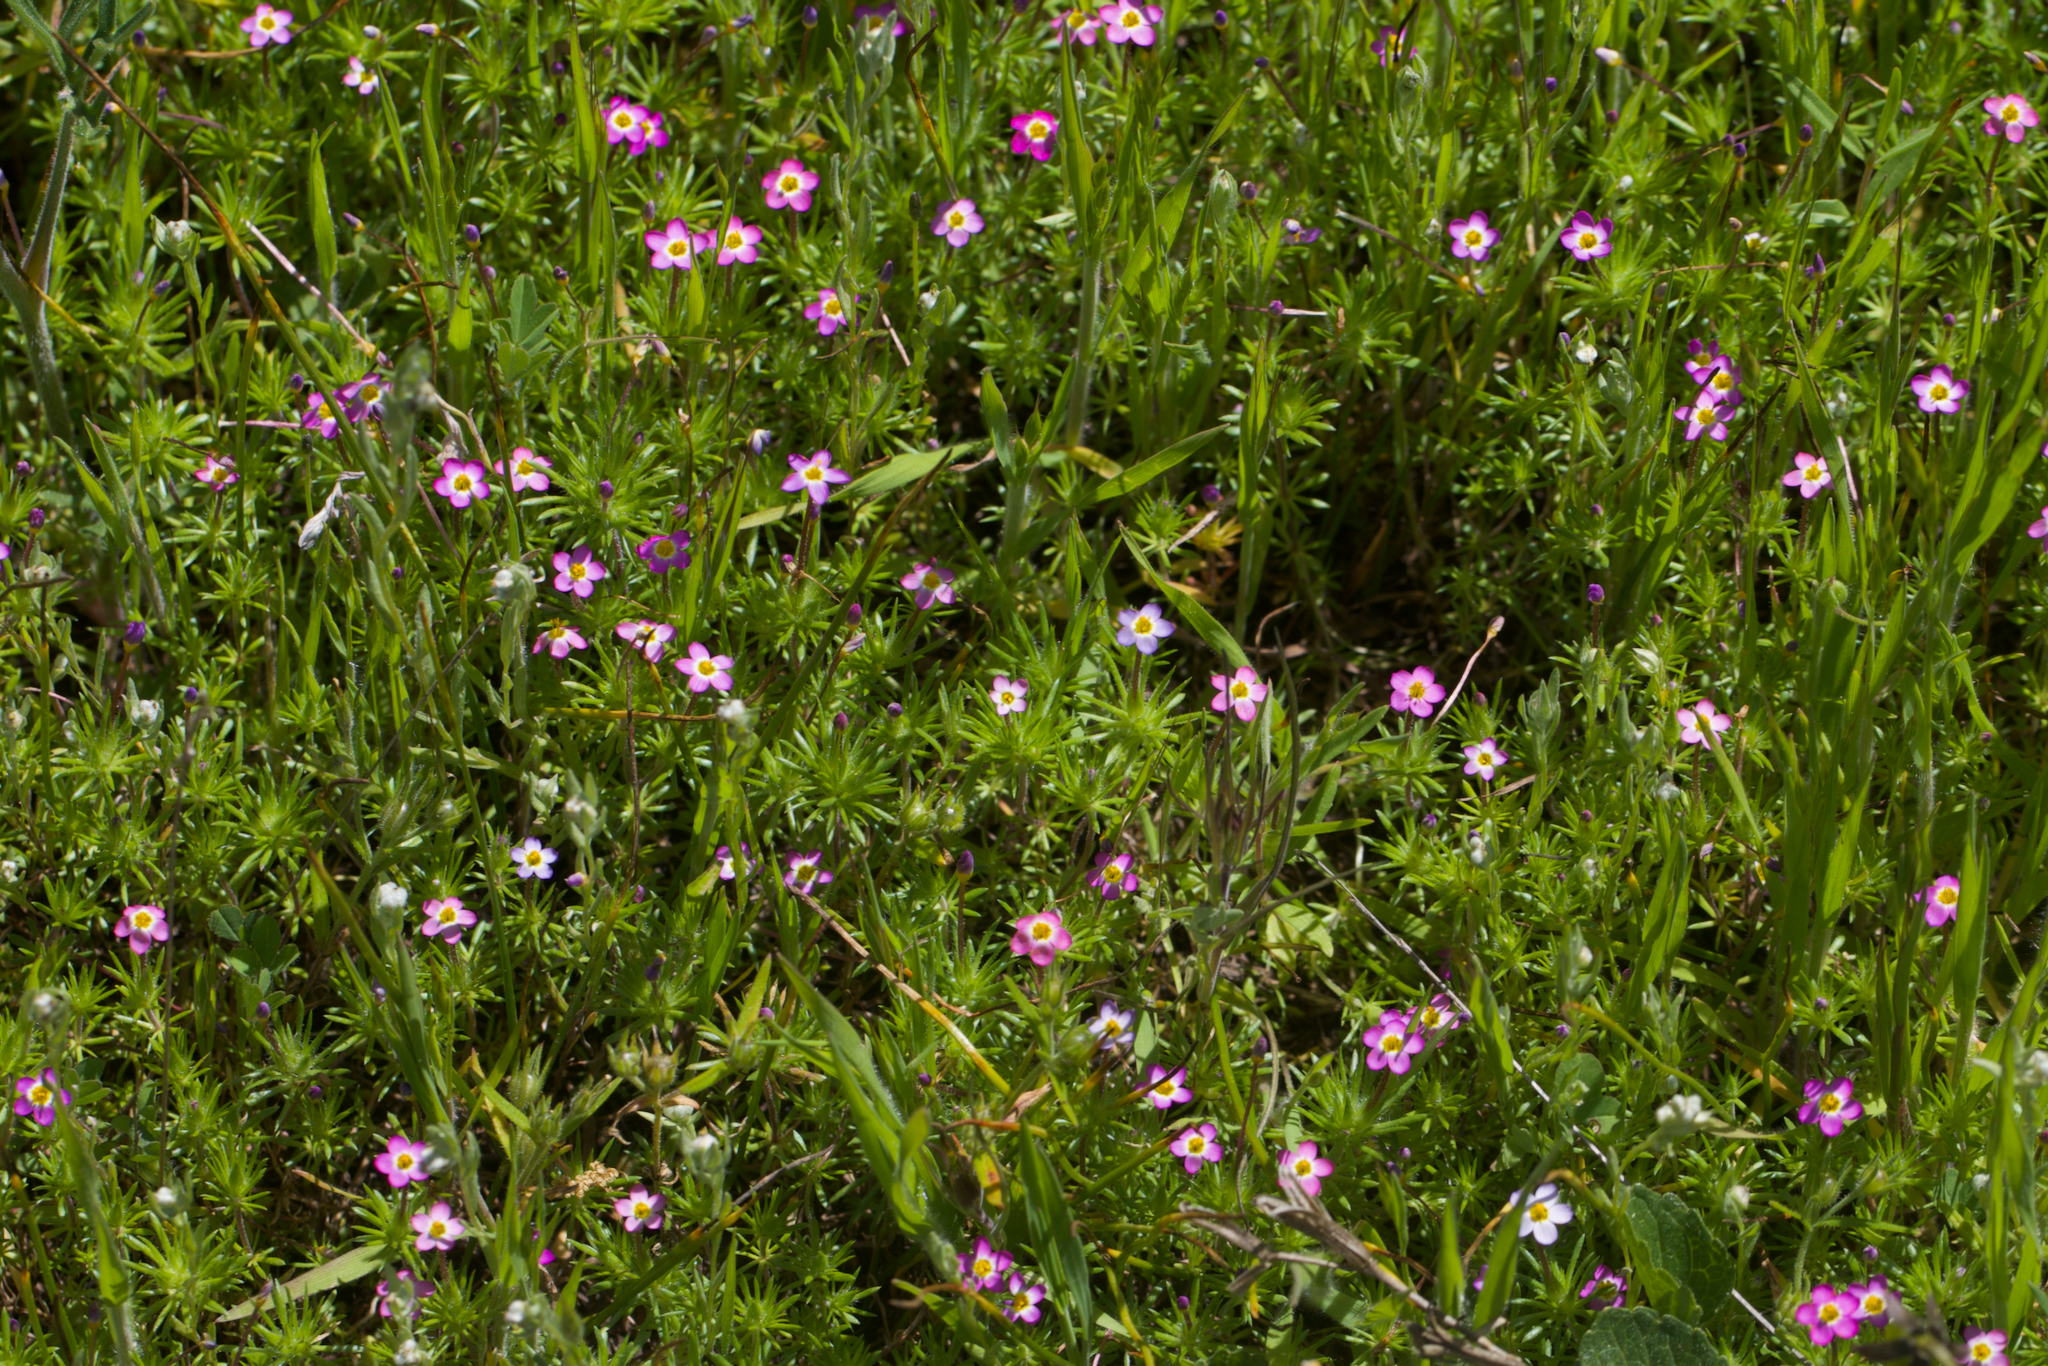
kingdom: Plantae
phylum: Tracheophyta
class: Magnoliopsida
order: Ericales
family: Polemoniaceae
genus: Leptosiphon
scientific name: Leptosiphon bicolor
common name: True babystars
